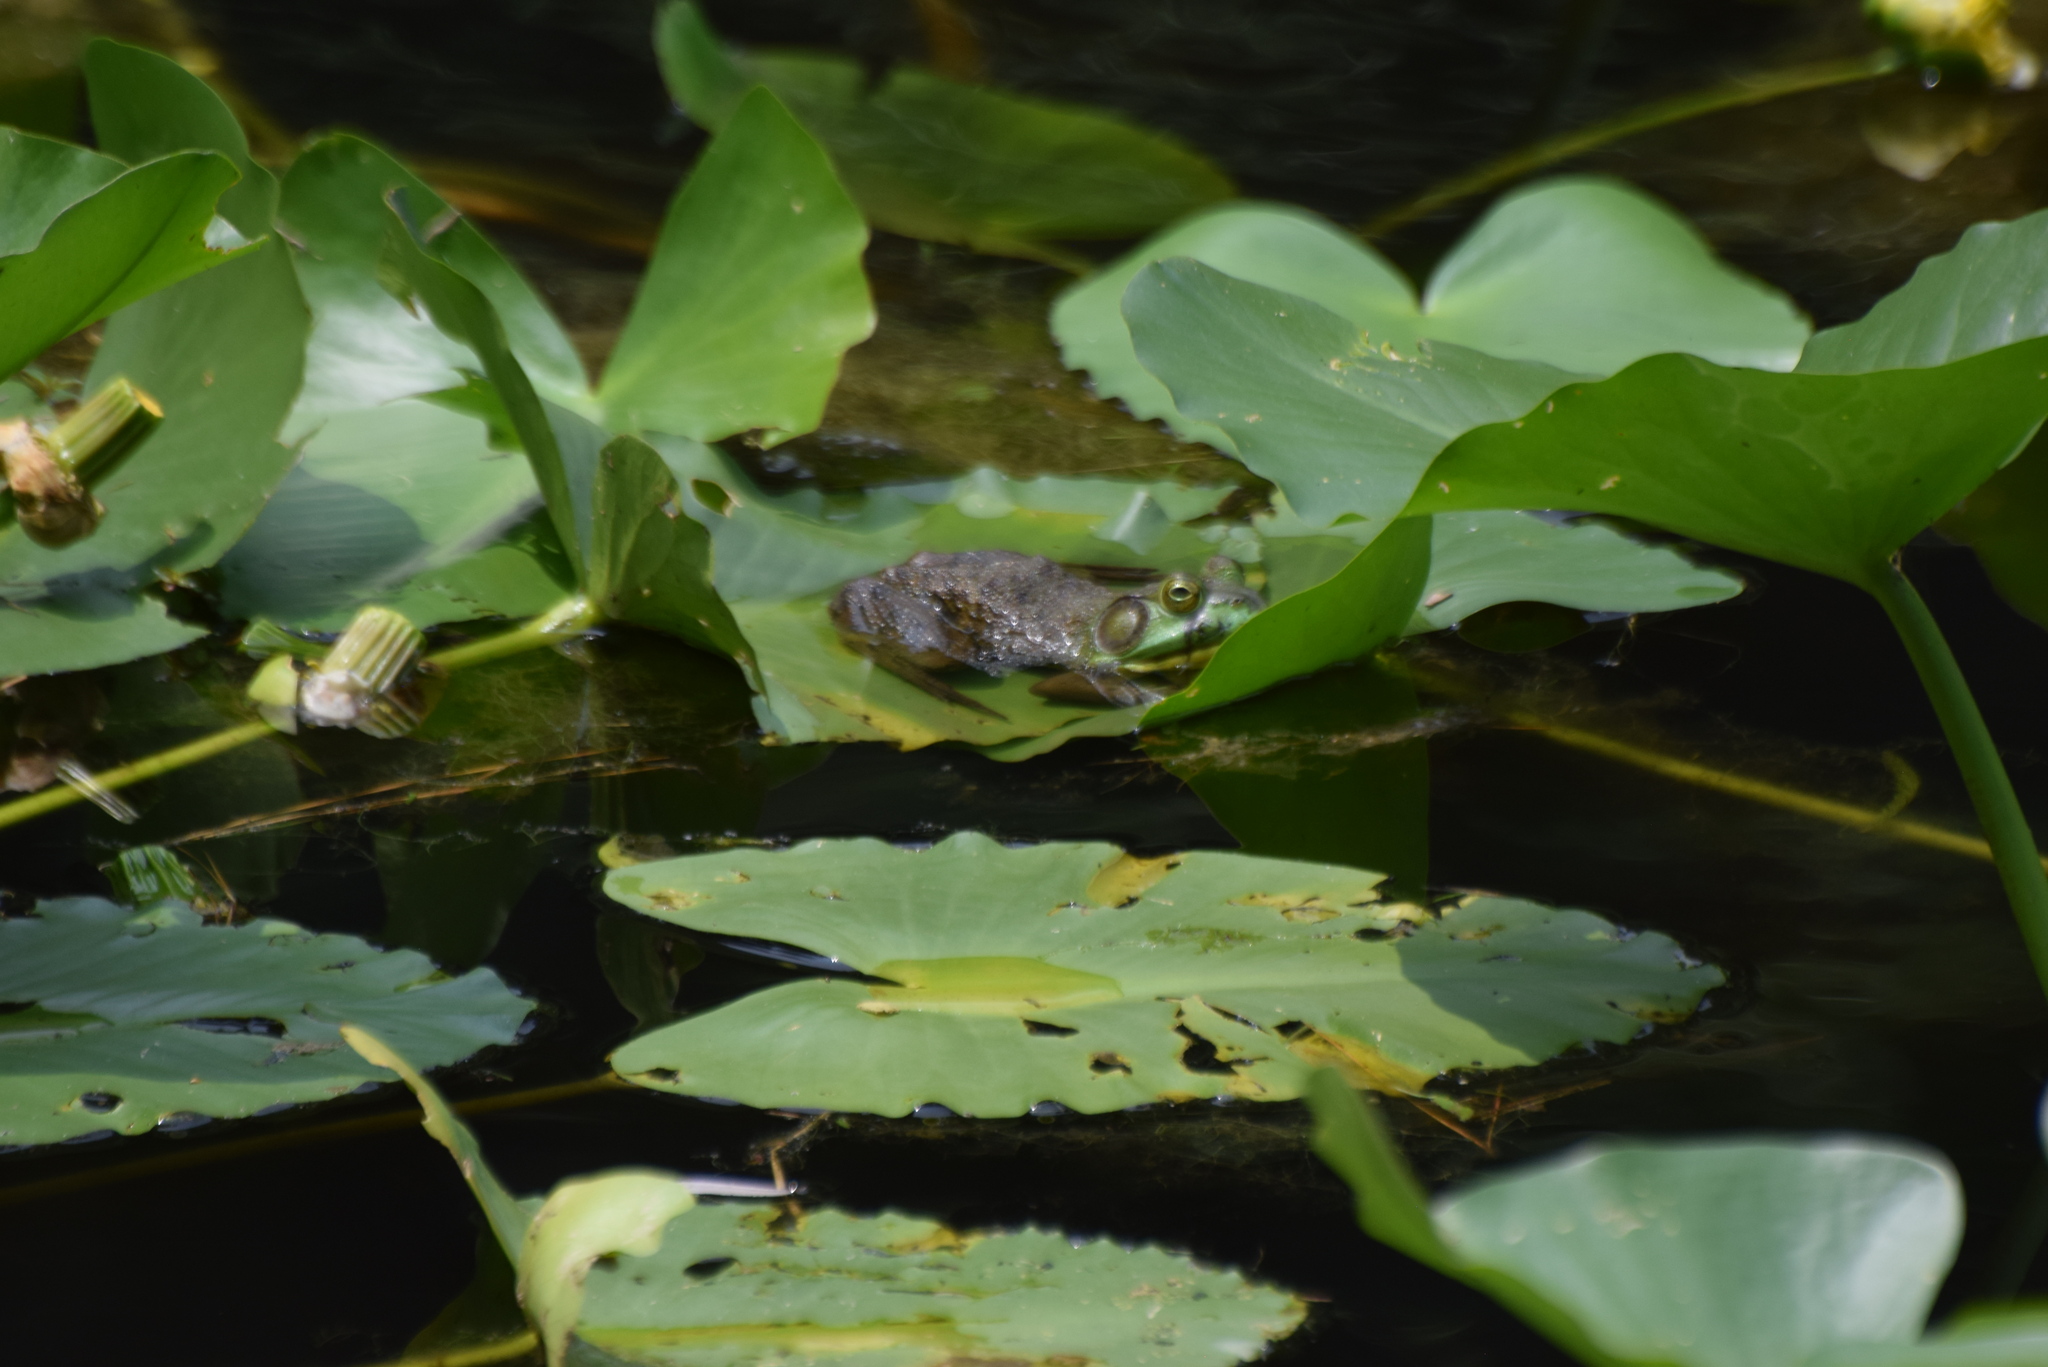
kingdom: Animalia
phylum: Chordata
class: Amphibia
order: Anura
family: Ranidae
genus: Lithobates
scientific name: Lithobates catesbeianus
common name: American bullfrog
